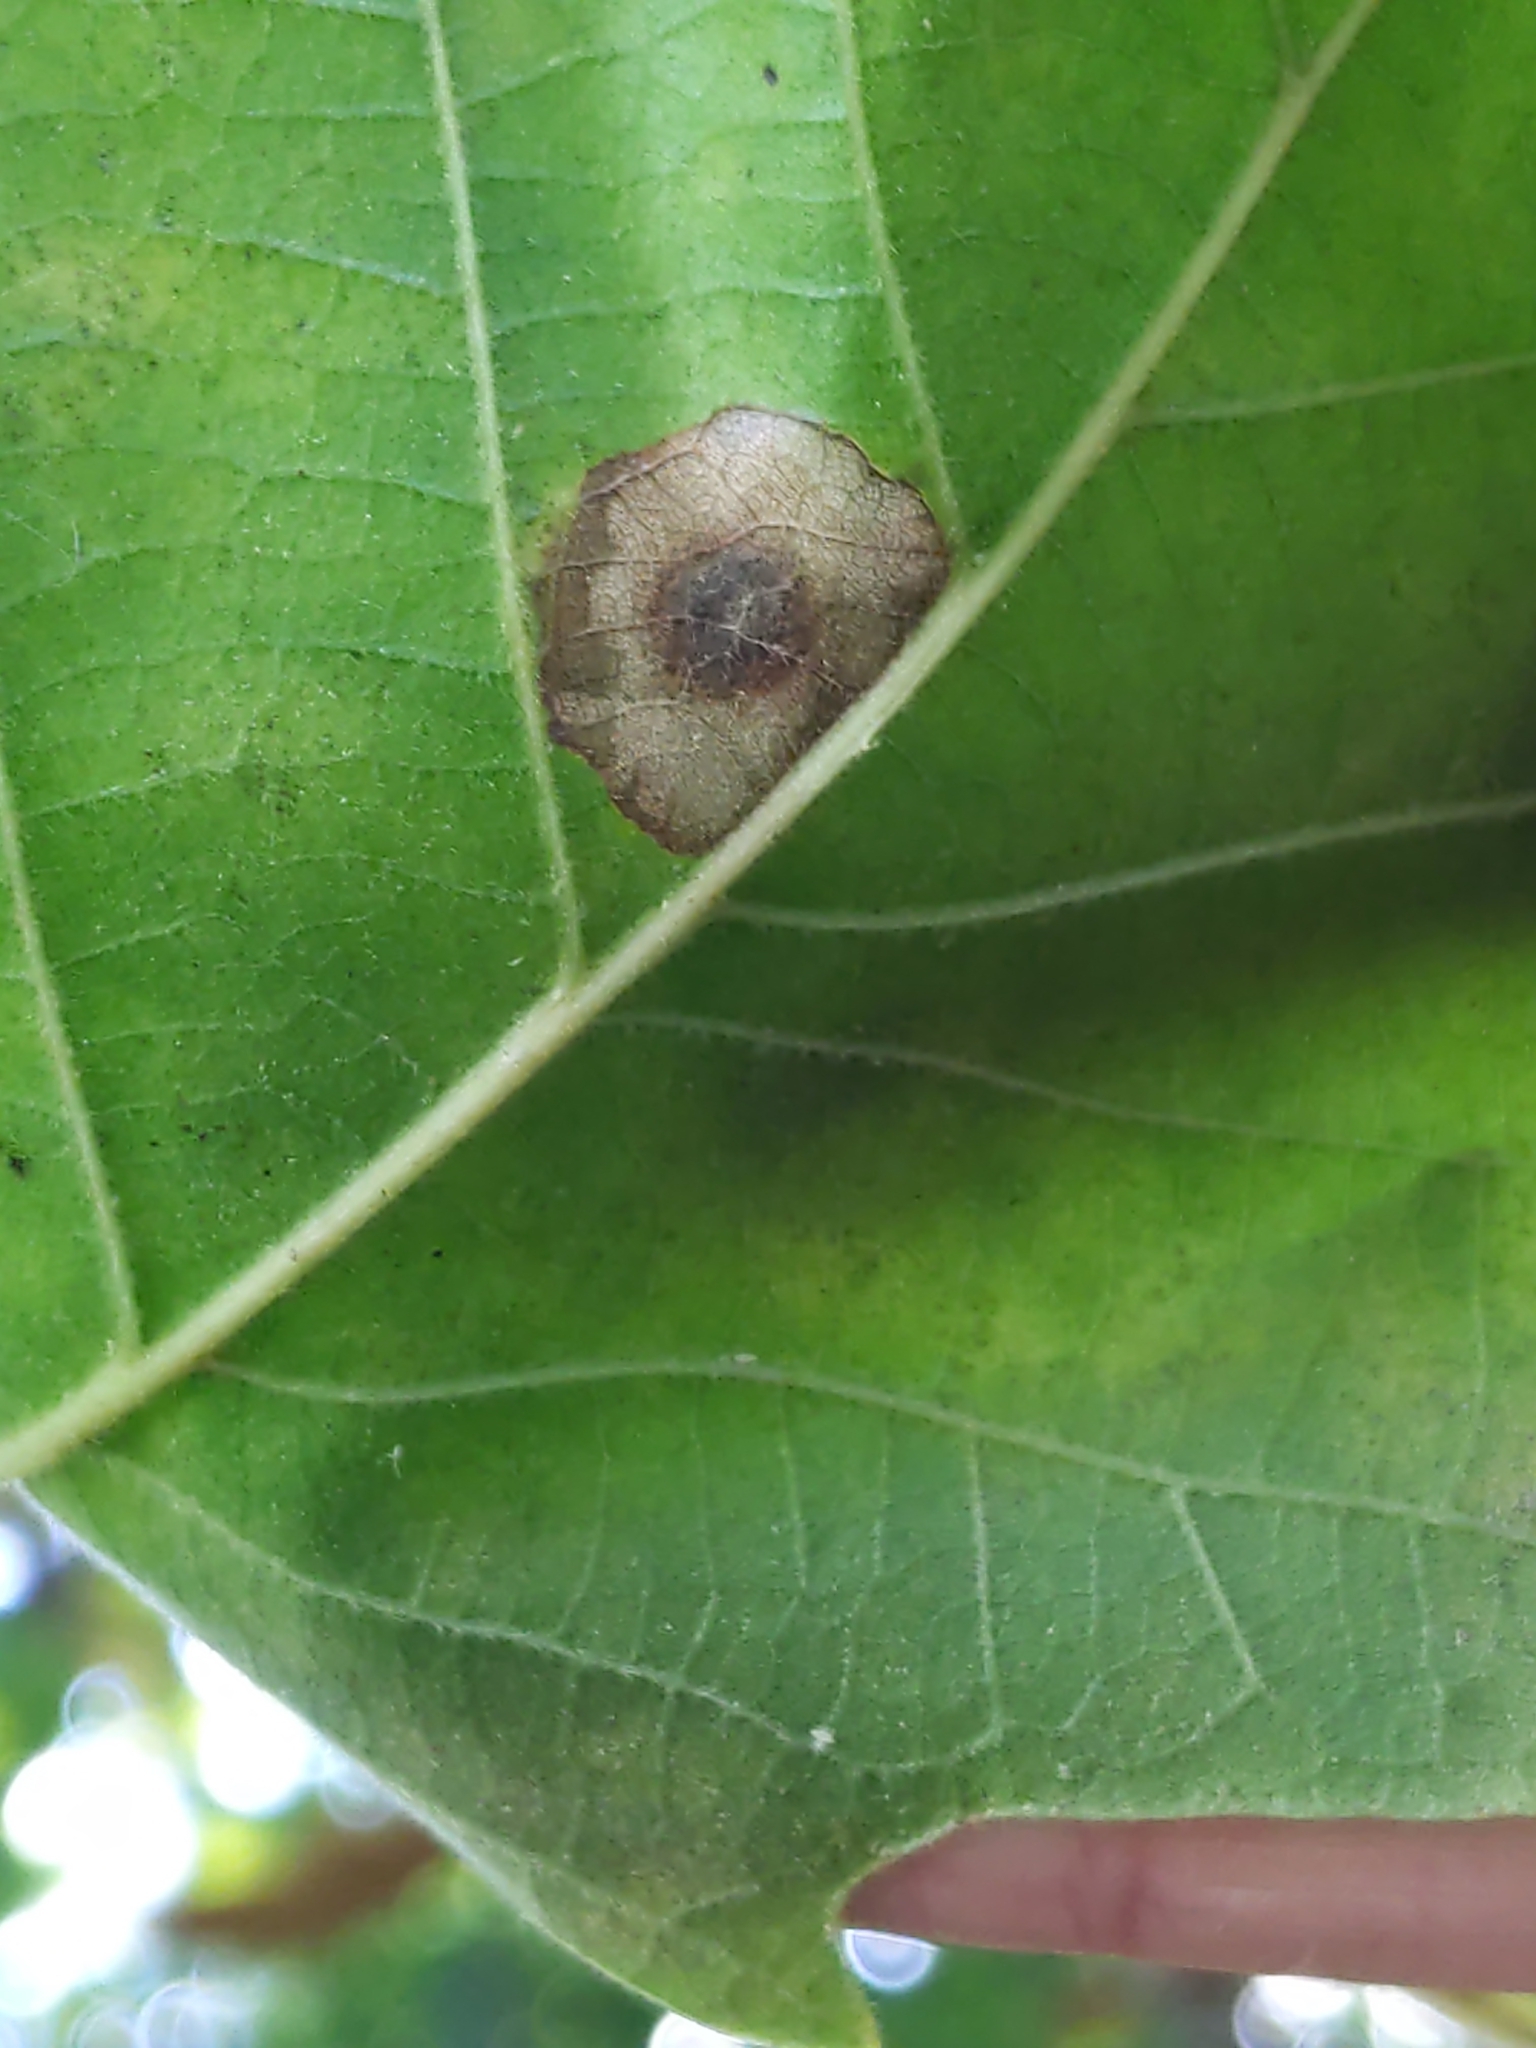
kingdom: Animalia
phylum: Arthropoda
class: Insecta
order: Lepidoptera
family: Gracillariidae
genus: Cameraria
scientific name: Cameraria
